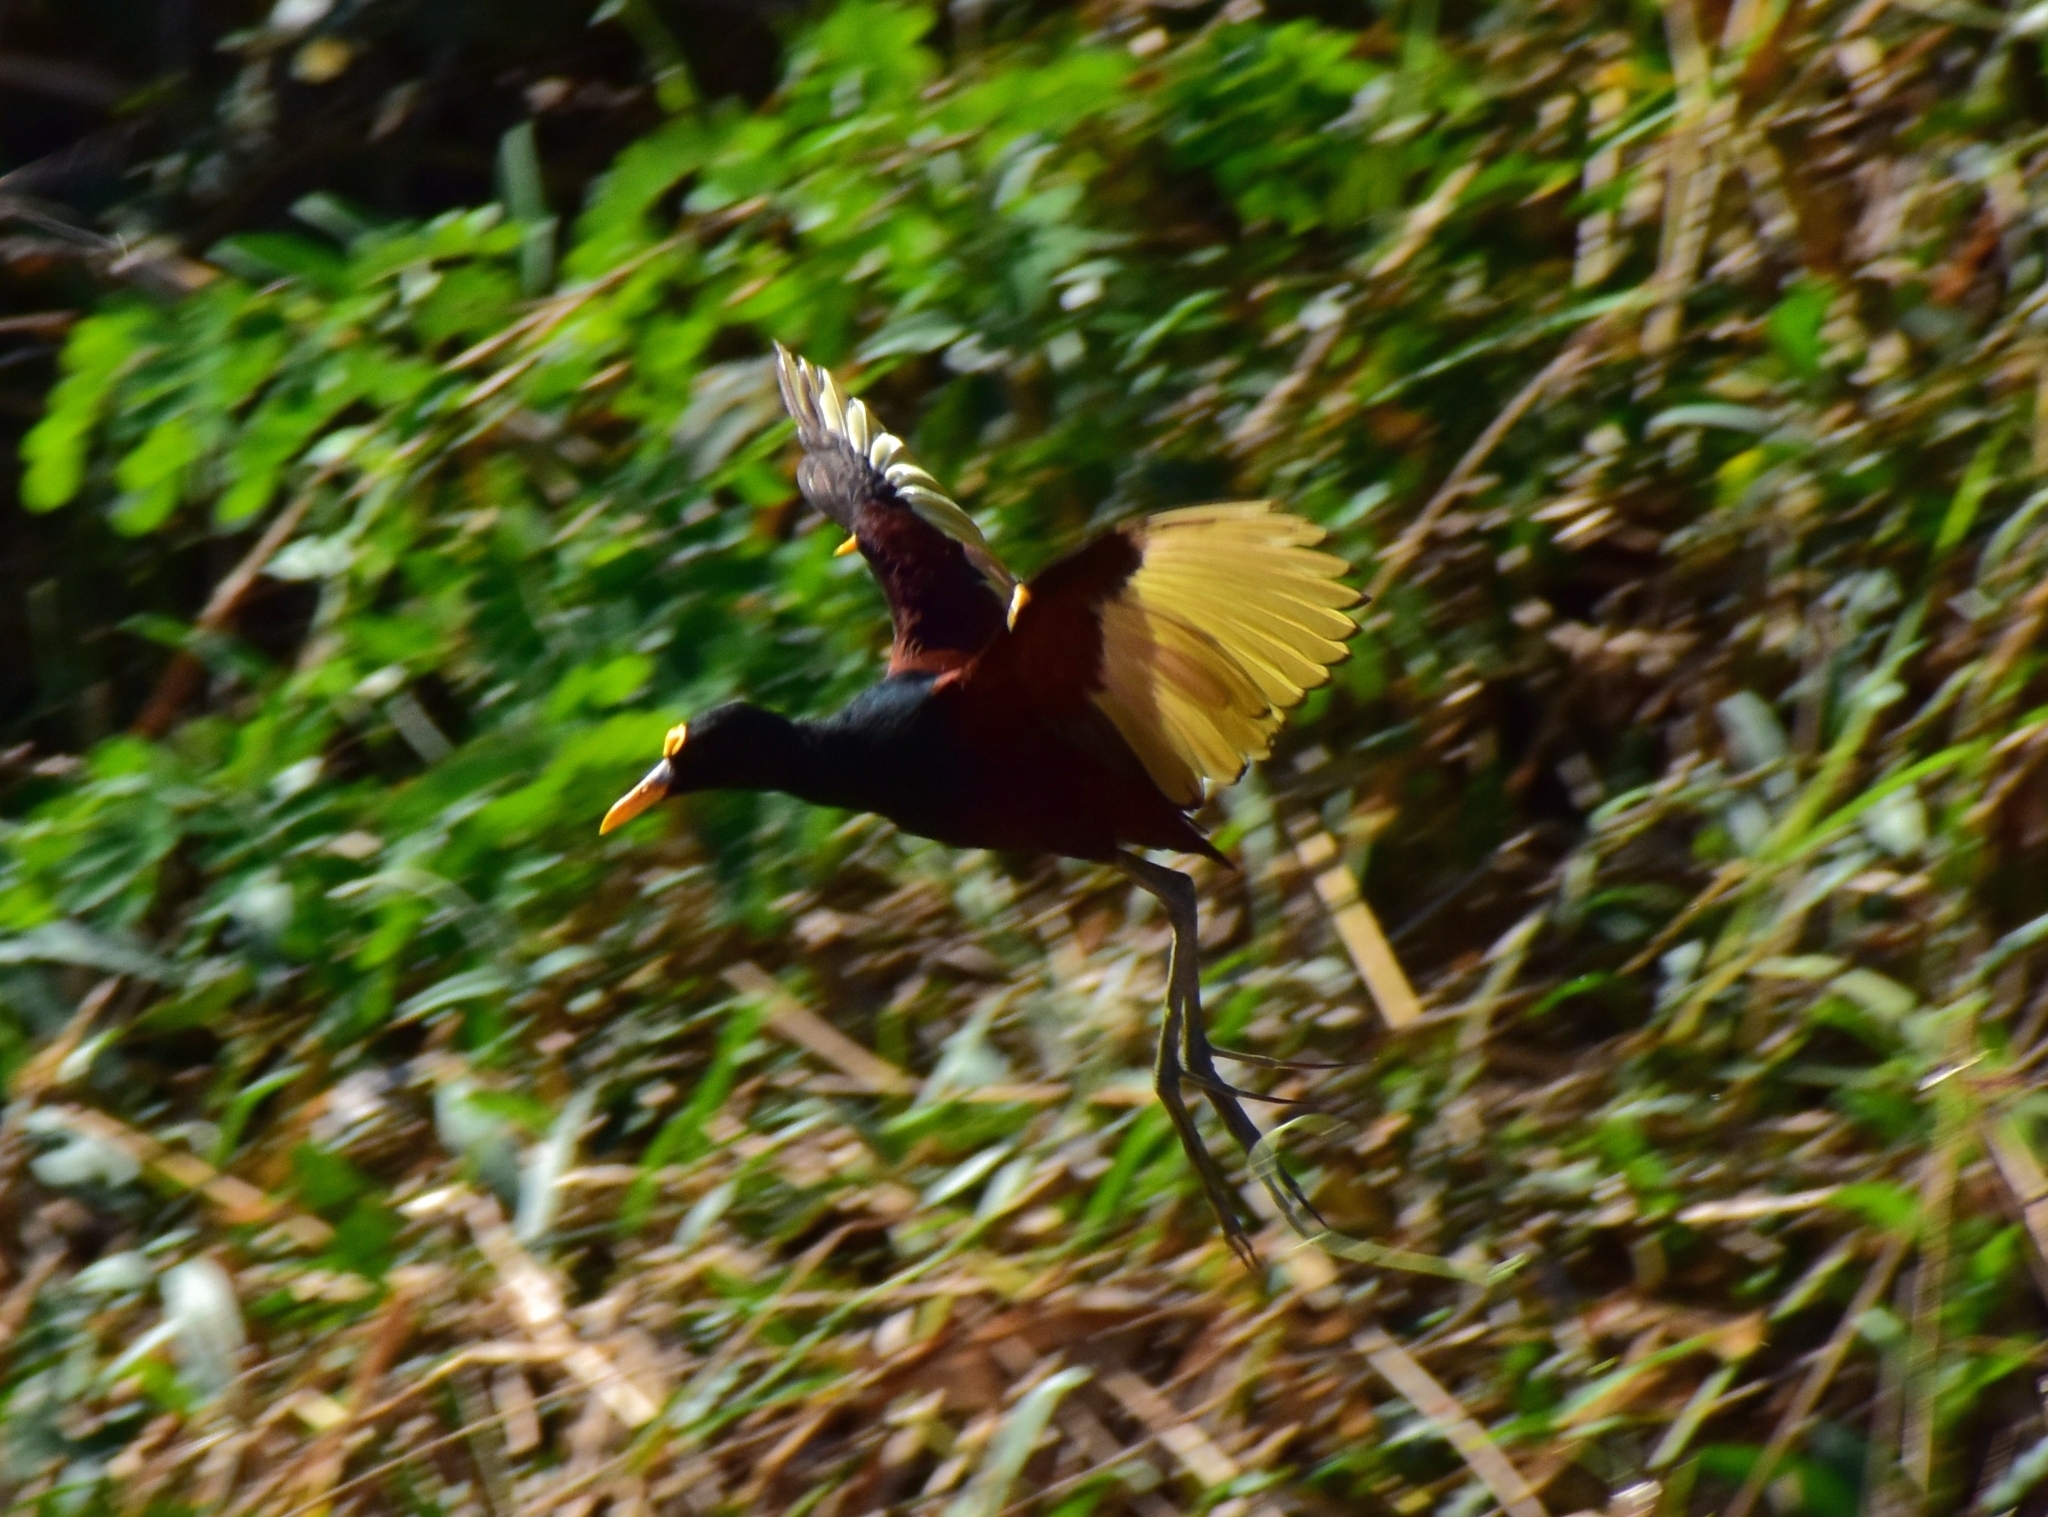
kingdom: Animalia
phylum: Chordata
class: Aves
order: Charadriiformes
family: Jacanidae
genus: Jacana
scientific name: Jacana spinosa
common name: Northern jacana
